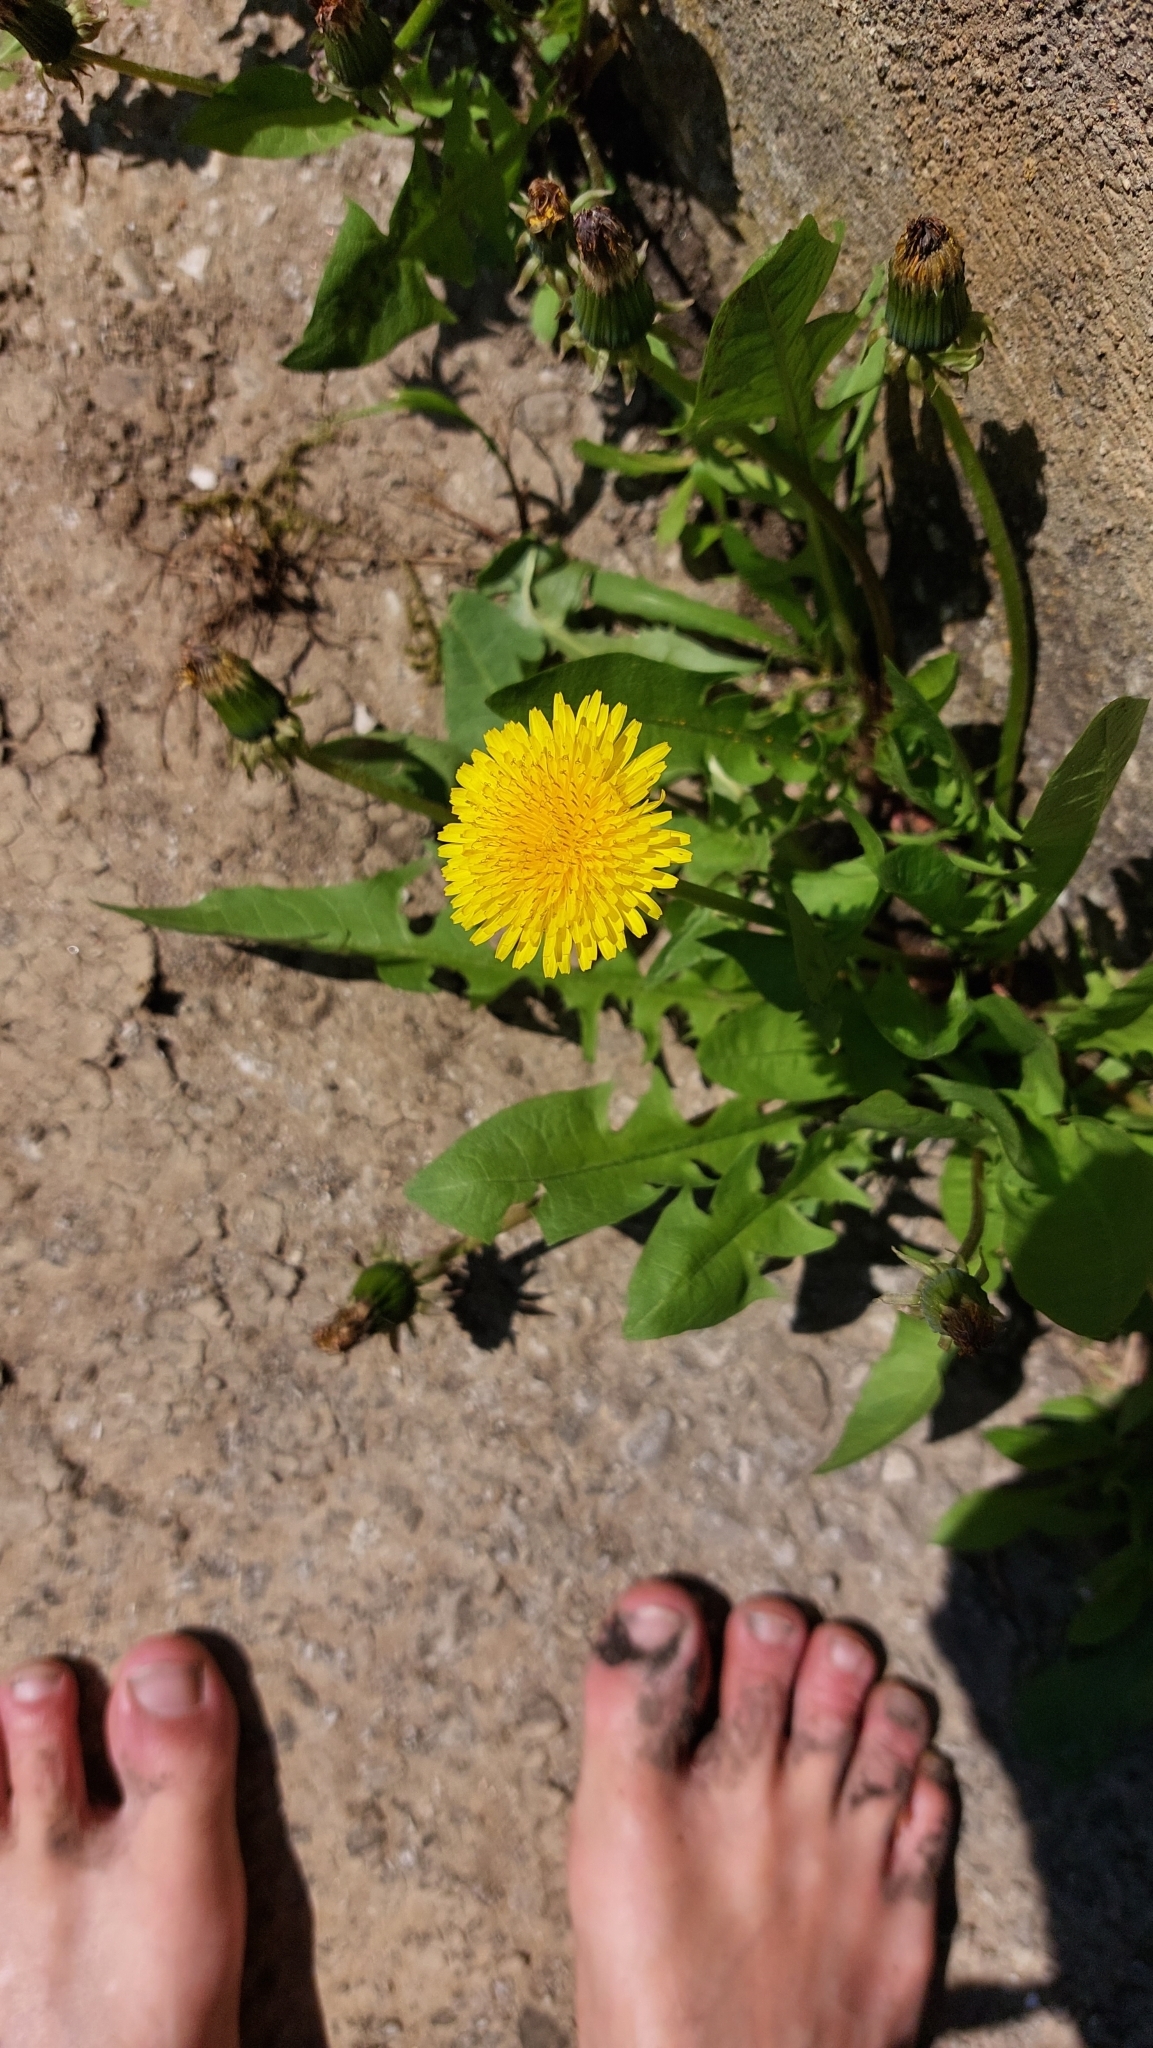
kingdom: Plantae
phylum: Tracheophyta
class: Magnoliopsida
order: Asterales
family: Asteraceae
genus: Taraxacum
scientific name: Taraxacum
